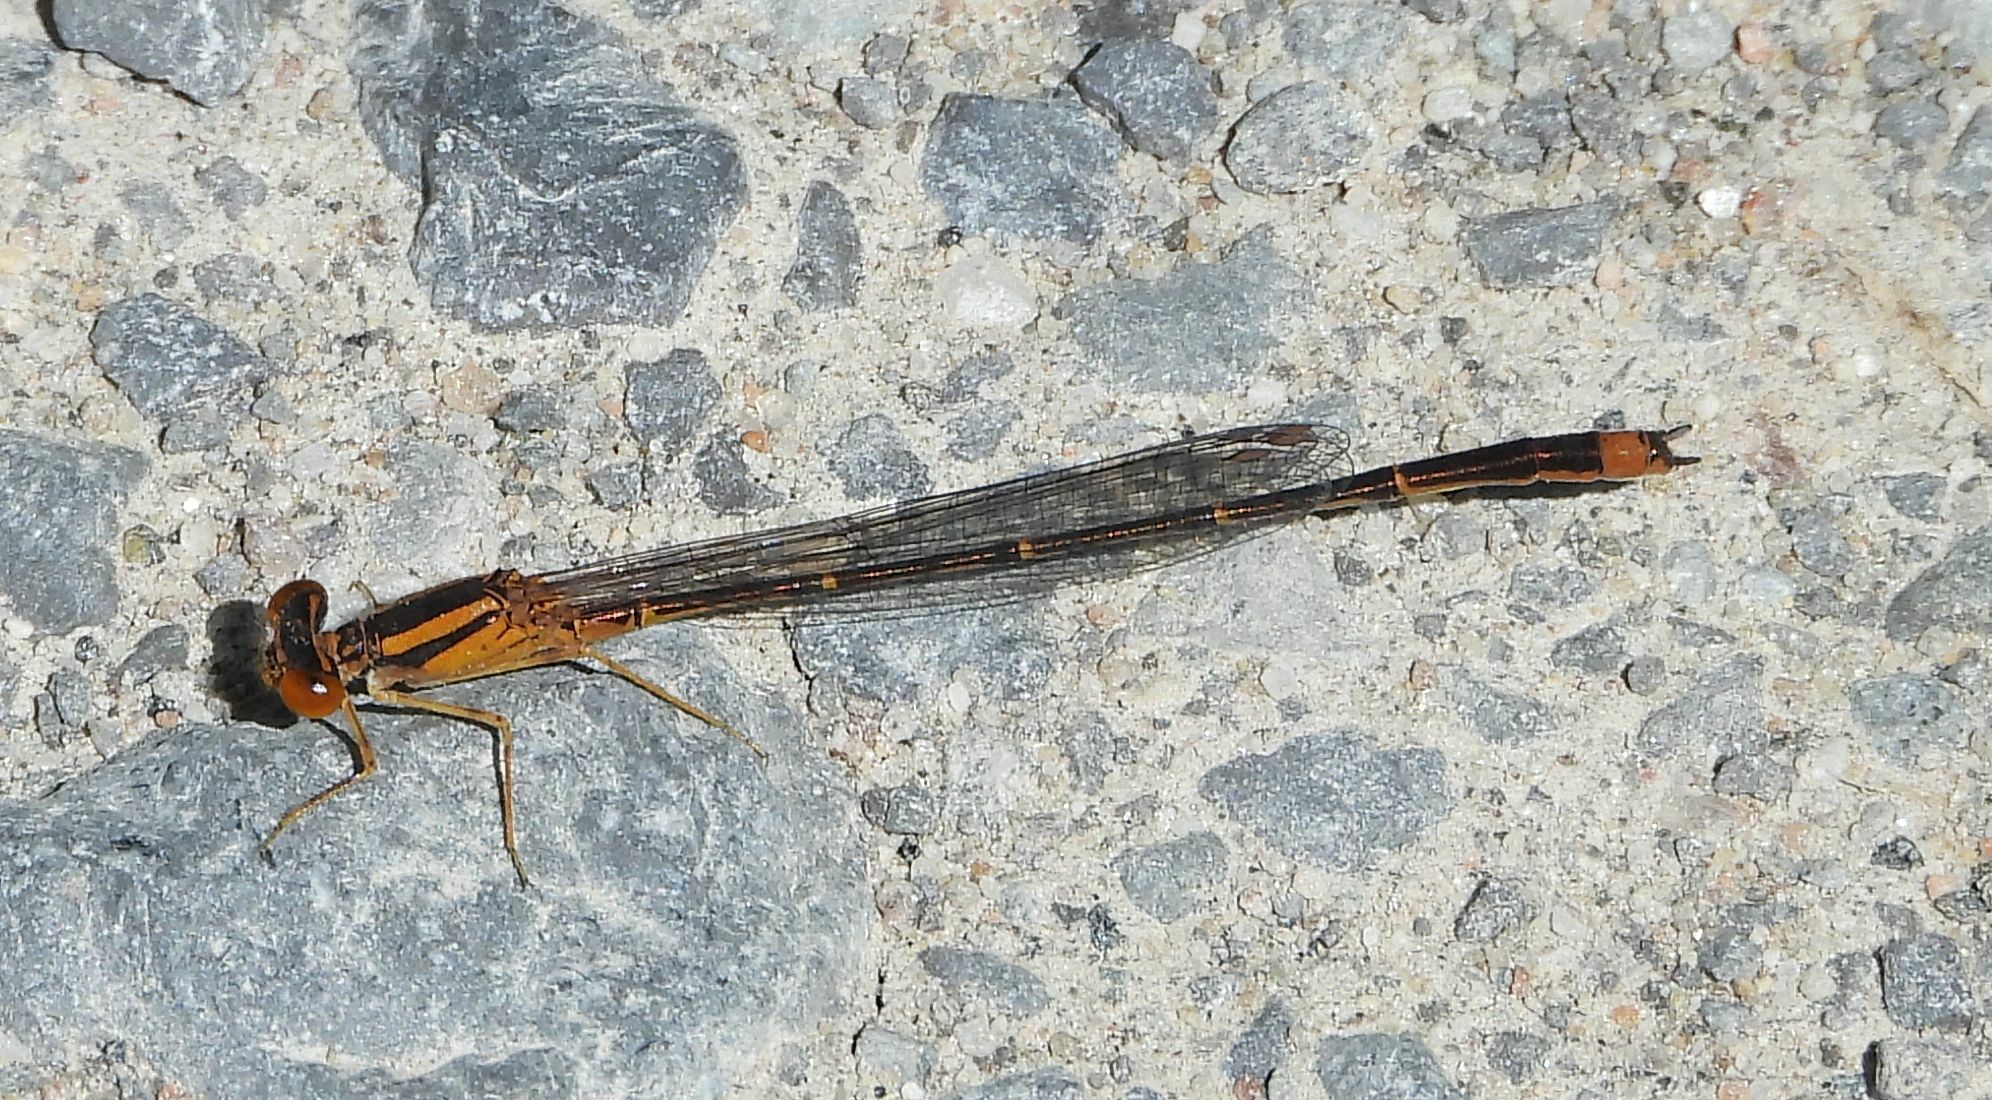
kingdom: Animalia
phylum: Arthropoda
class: Insecta
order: Odonata
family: Coenagrionidae
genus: Enallagma
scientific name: Enallagma signatum
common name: Orange bluet
